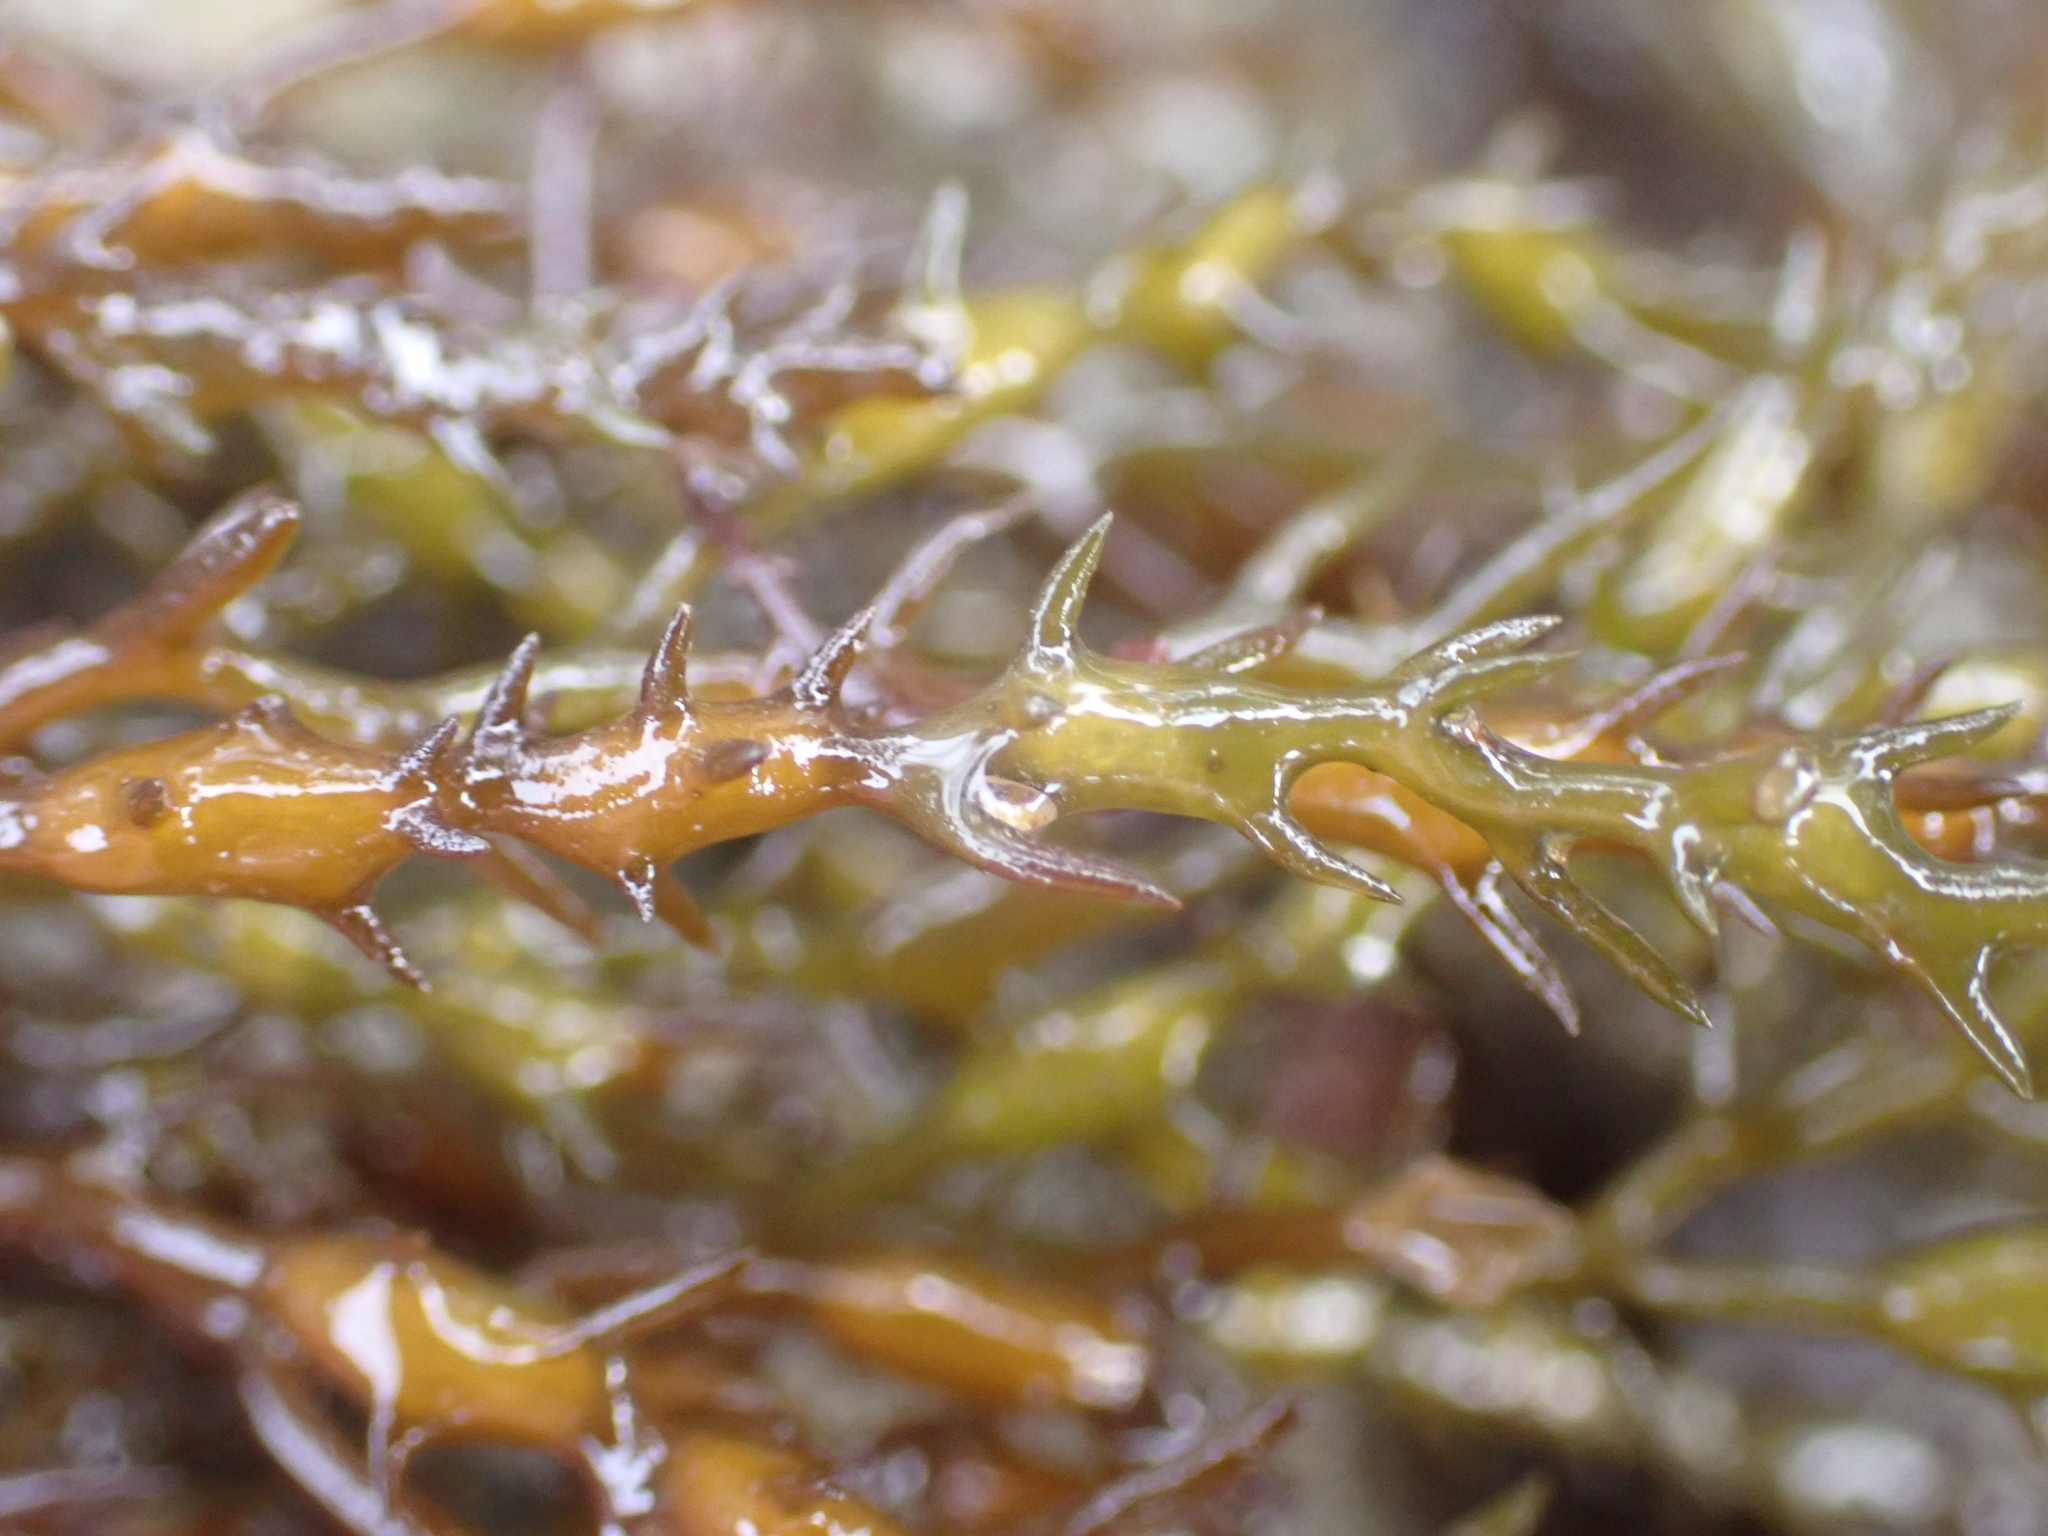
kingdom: Chromista
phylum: Ochrophyta
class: Phaeophyceae
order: Fucales
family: Sargassaceae
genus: Cystoseira
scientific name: Cystoseira Ericaria selaginoides
